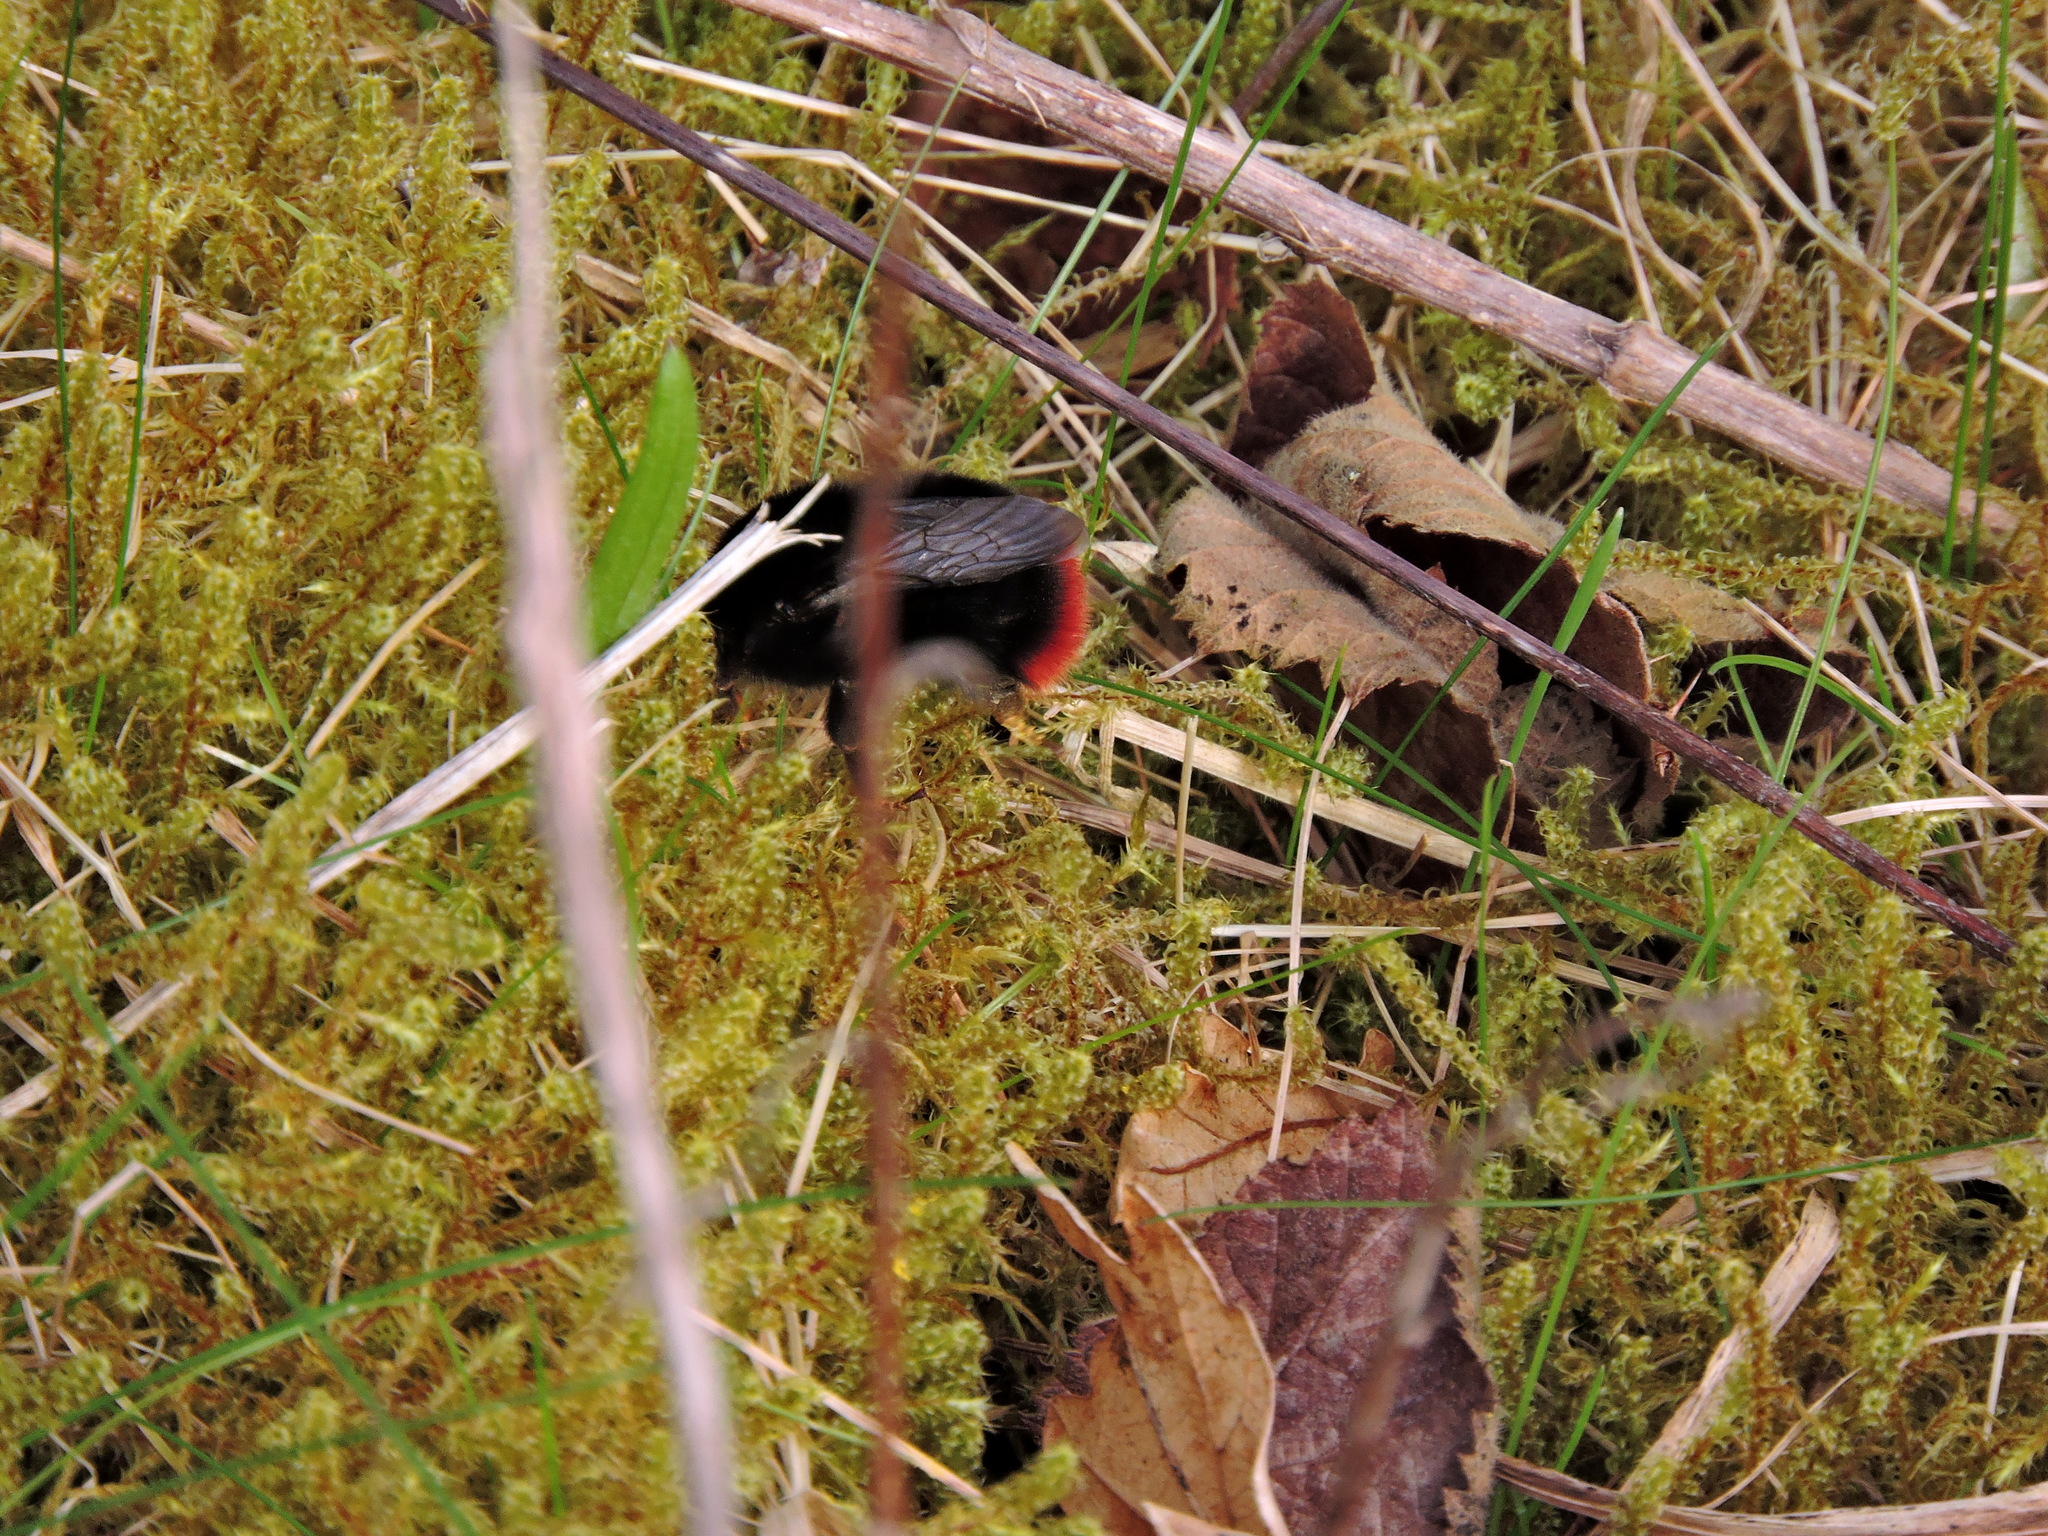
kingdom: Animalia
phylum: Arthropoda
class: Insecta
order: Hymenoptera
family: Apidae
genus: Bombus
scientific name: Bombus lapidarius
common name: Large red-tailed humble-bee
